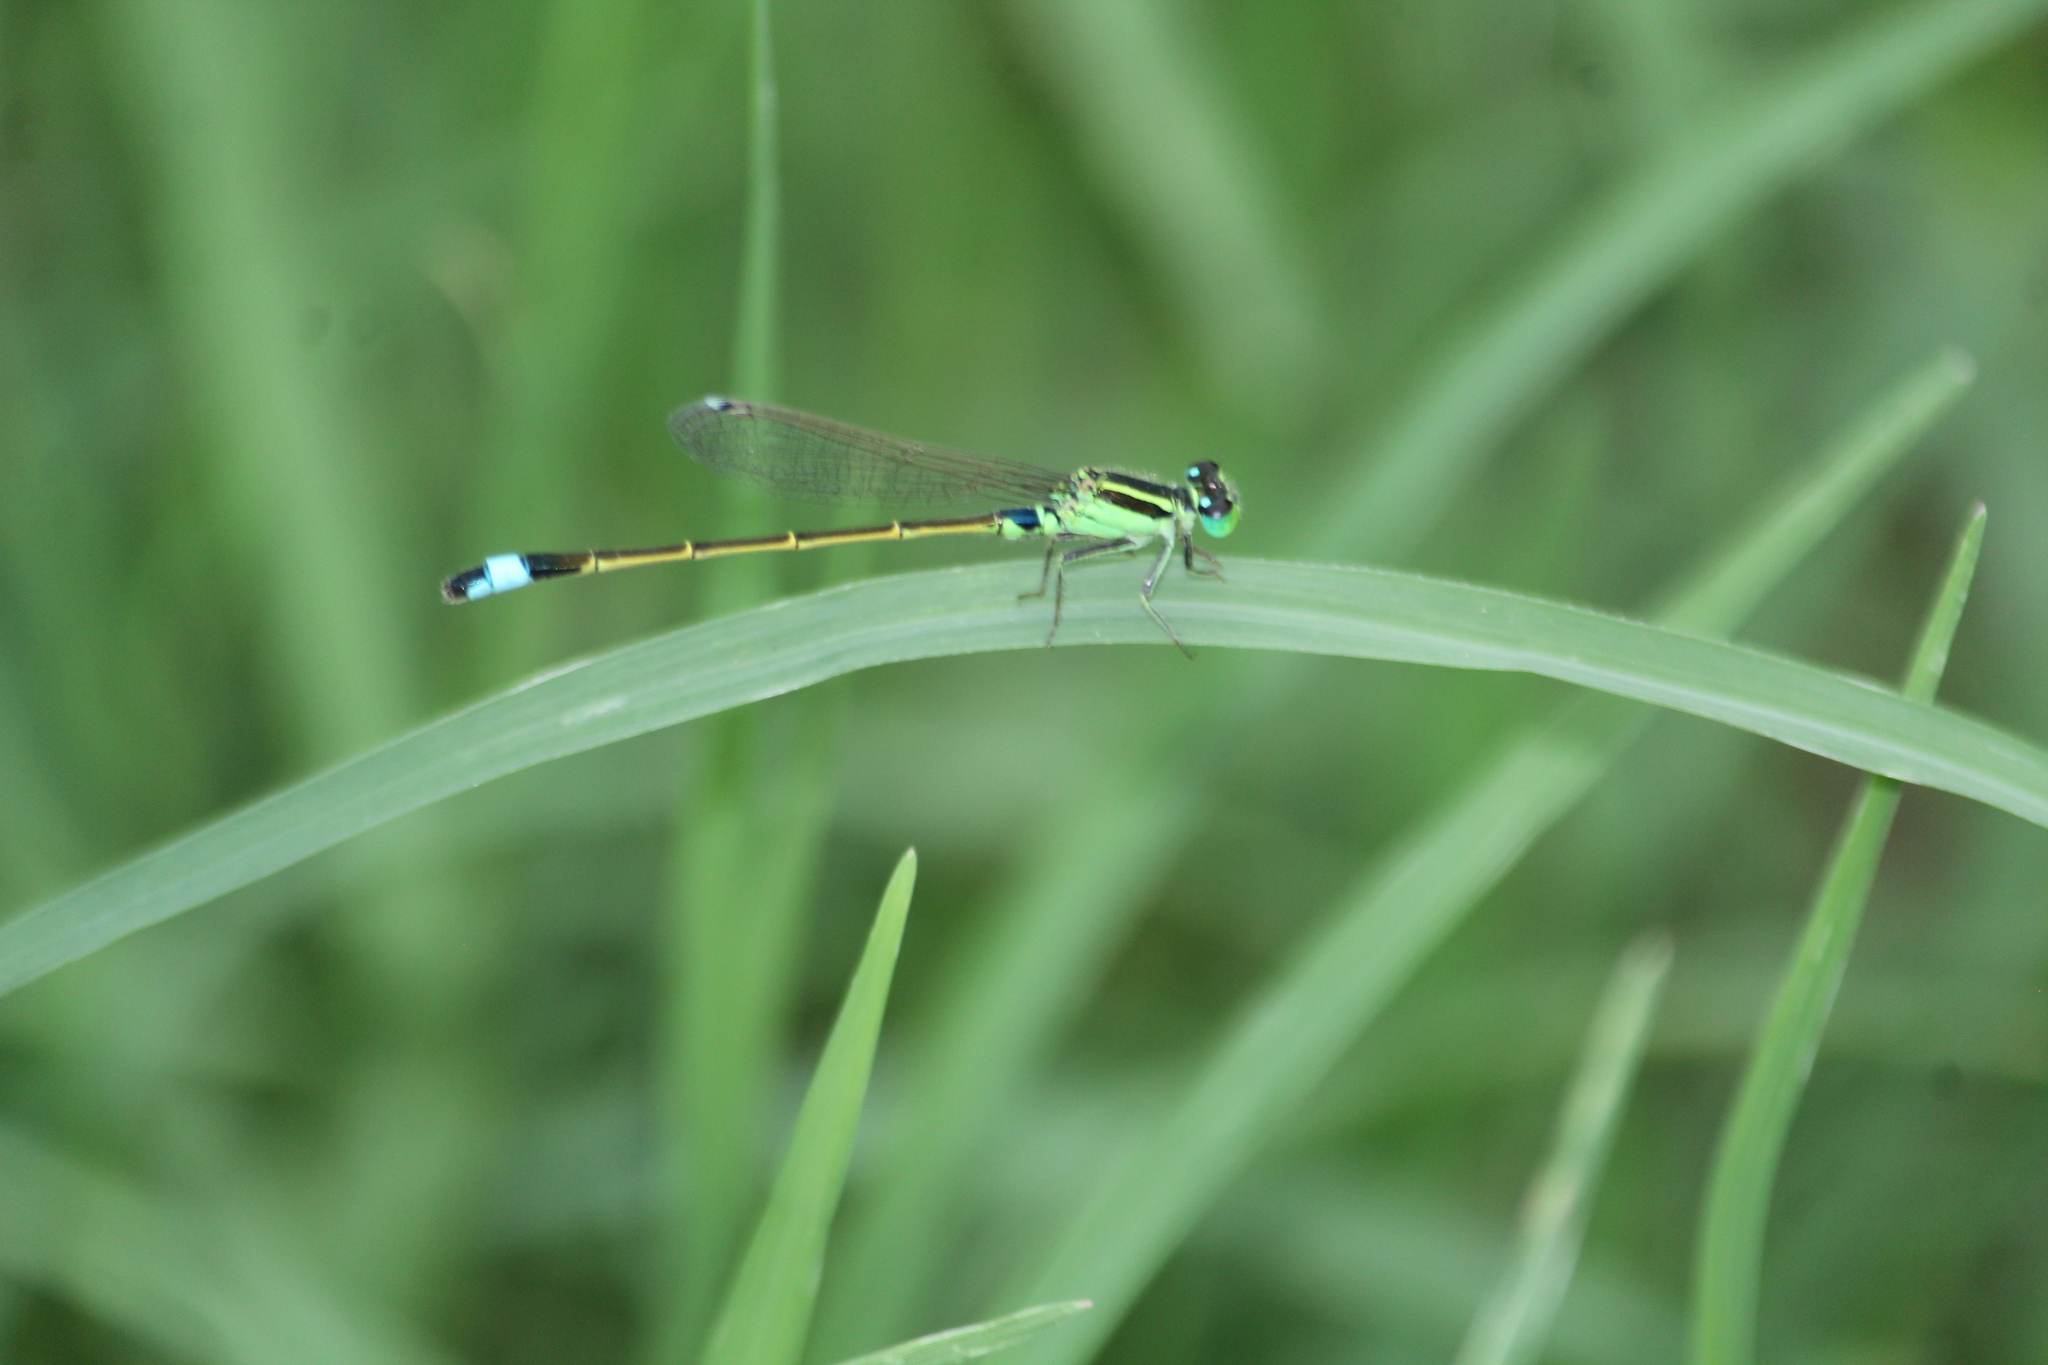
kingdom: Animalia
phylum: Arthropoda
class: Insecta
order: Odonata
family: Coenagrionidae
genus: Ischnura
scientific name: Ischnura senegalensis
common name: Tropical bluetail
